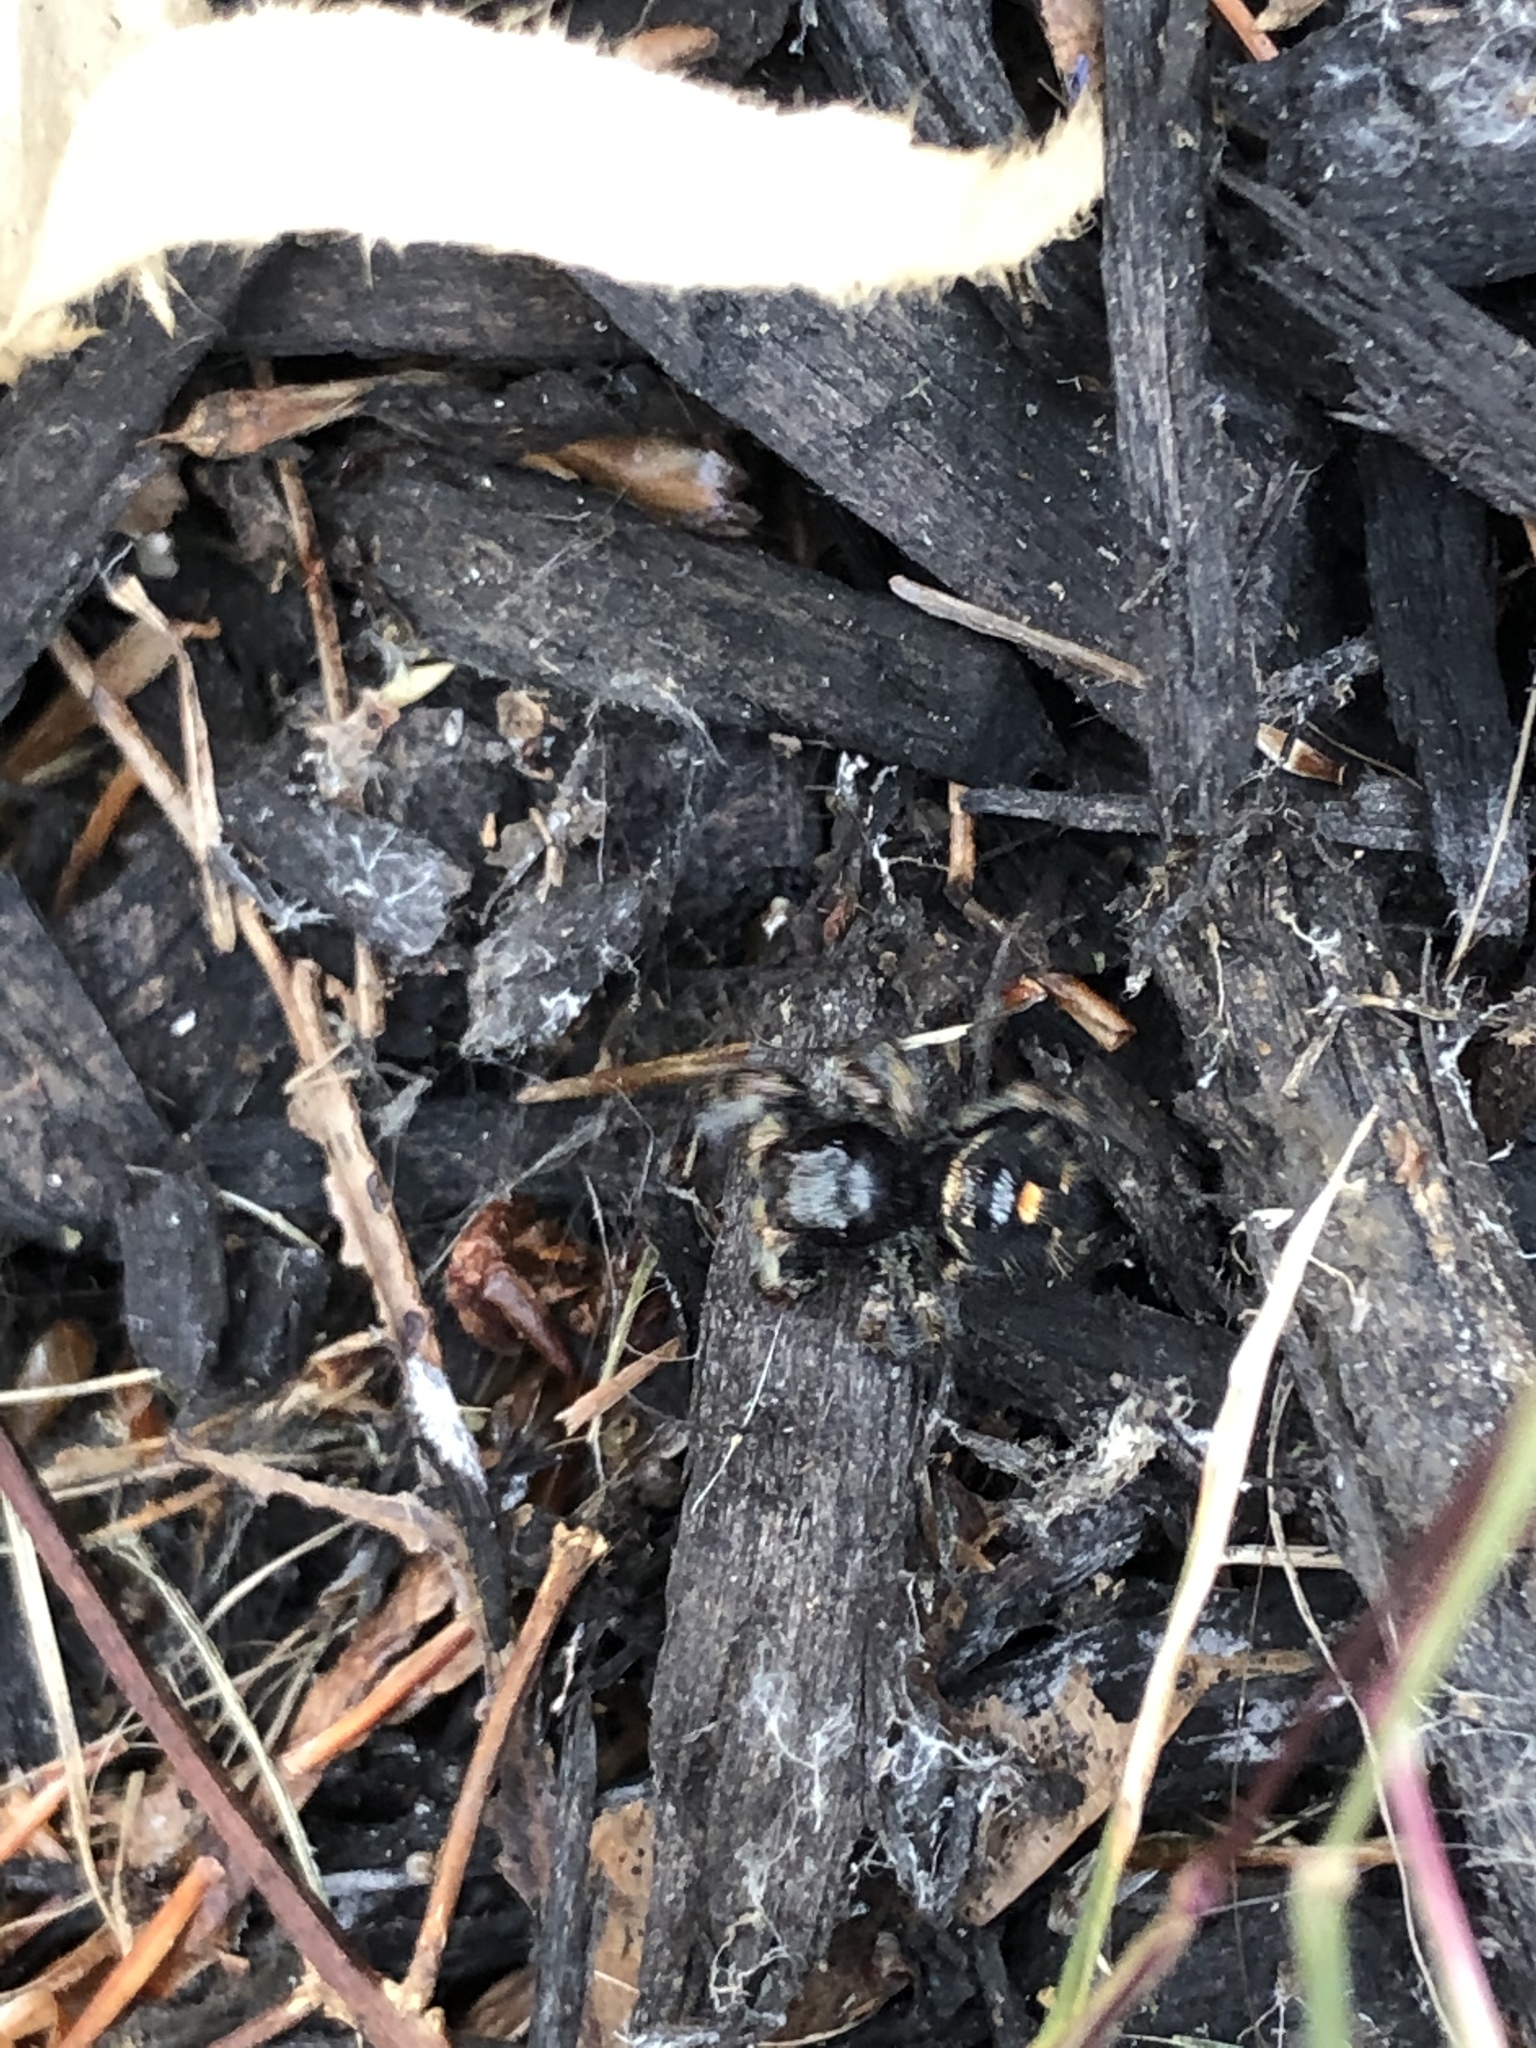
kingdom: Animalia
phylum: Arthropoda
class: Arachnida
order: Araneae
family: Salticidae
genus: Phidippus
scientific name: Phidippus audax
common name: Bold jumper
